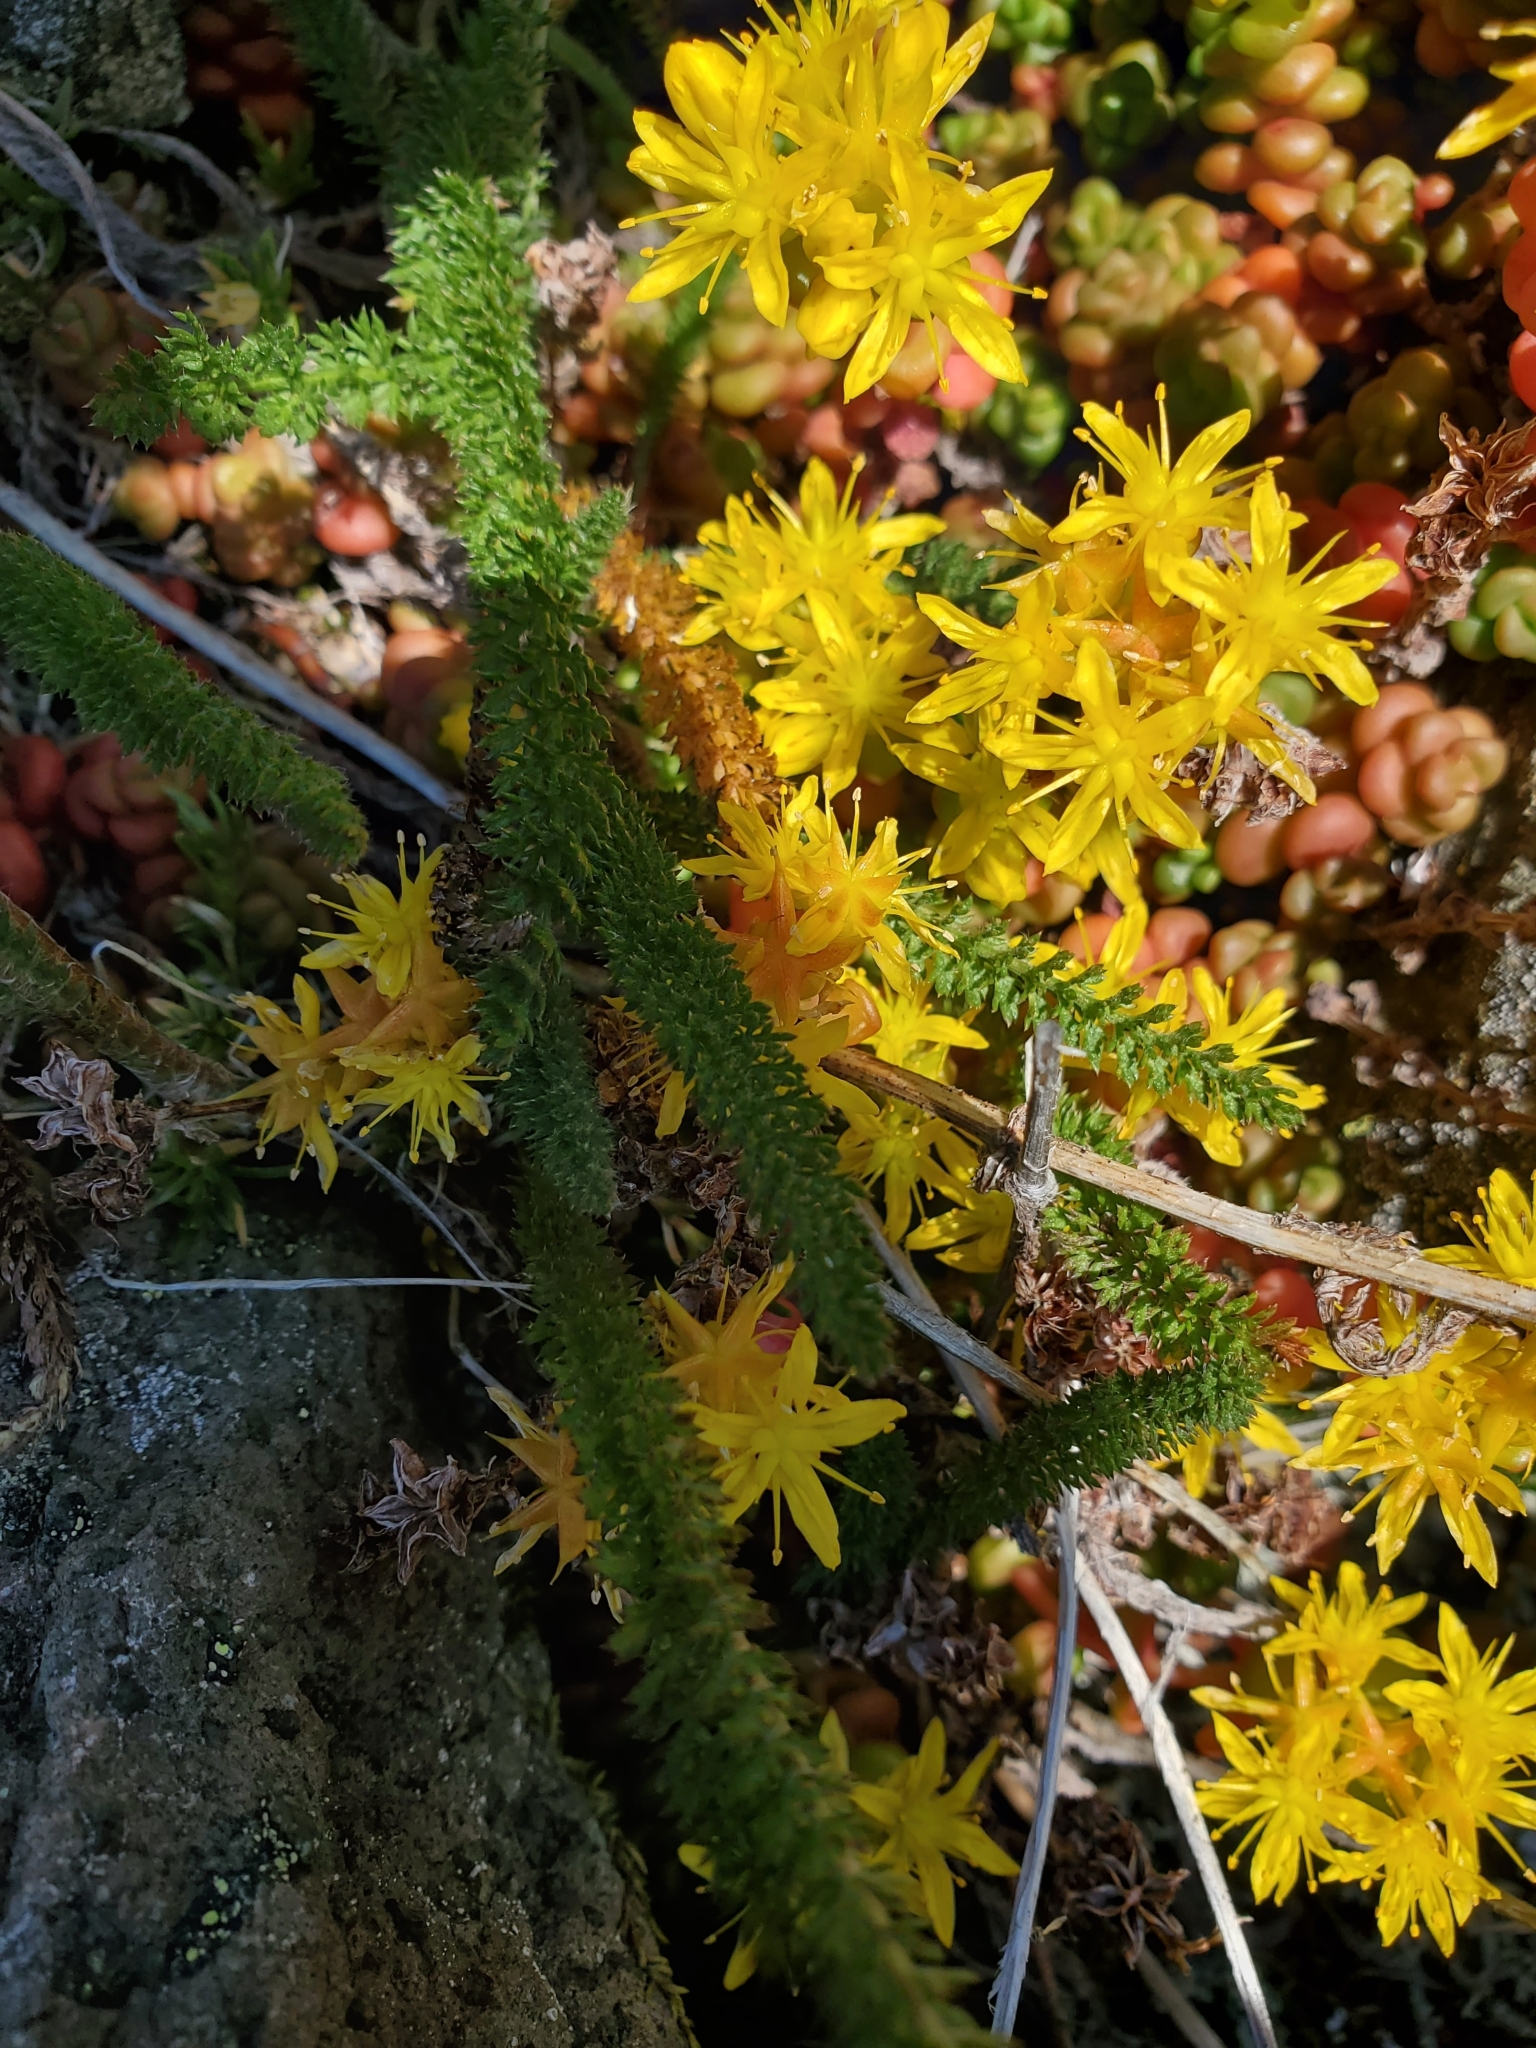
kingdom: Plantae
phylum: Tracheophyta
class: Magnoliopsida
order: Saxifragales
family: Crassulaceae
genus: Sedum
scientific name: Sedum divergens
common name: Cascade stonecrop
